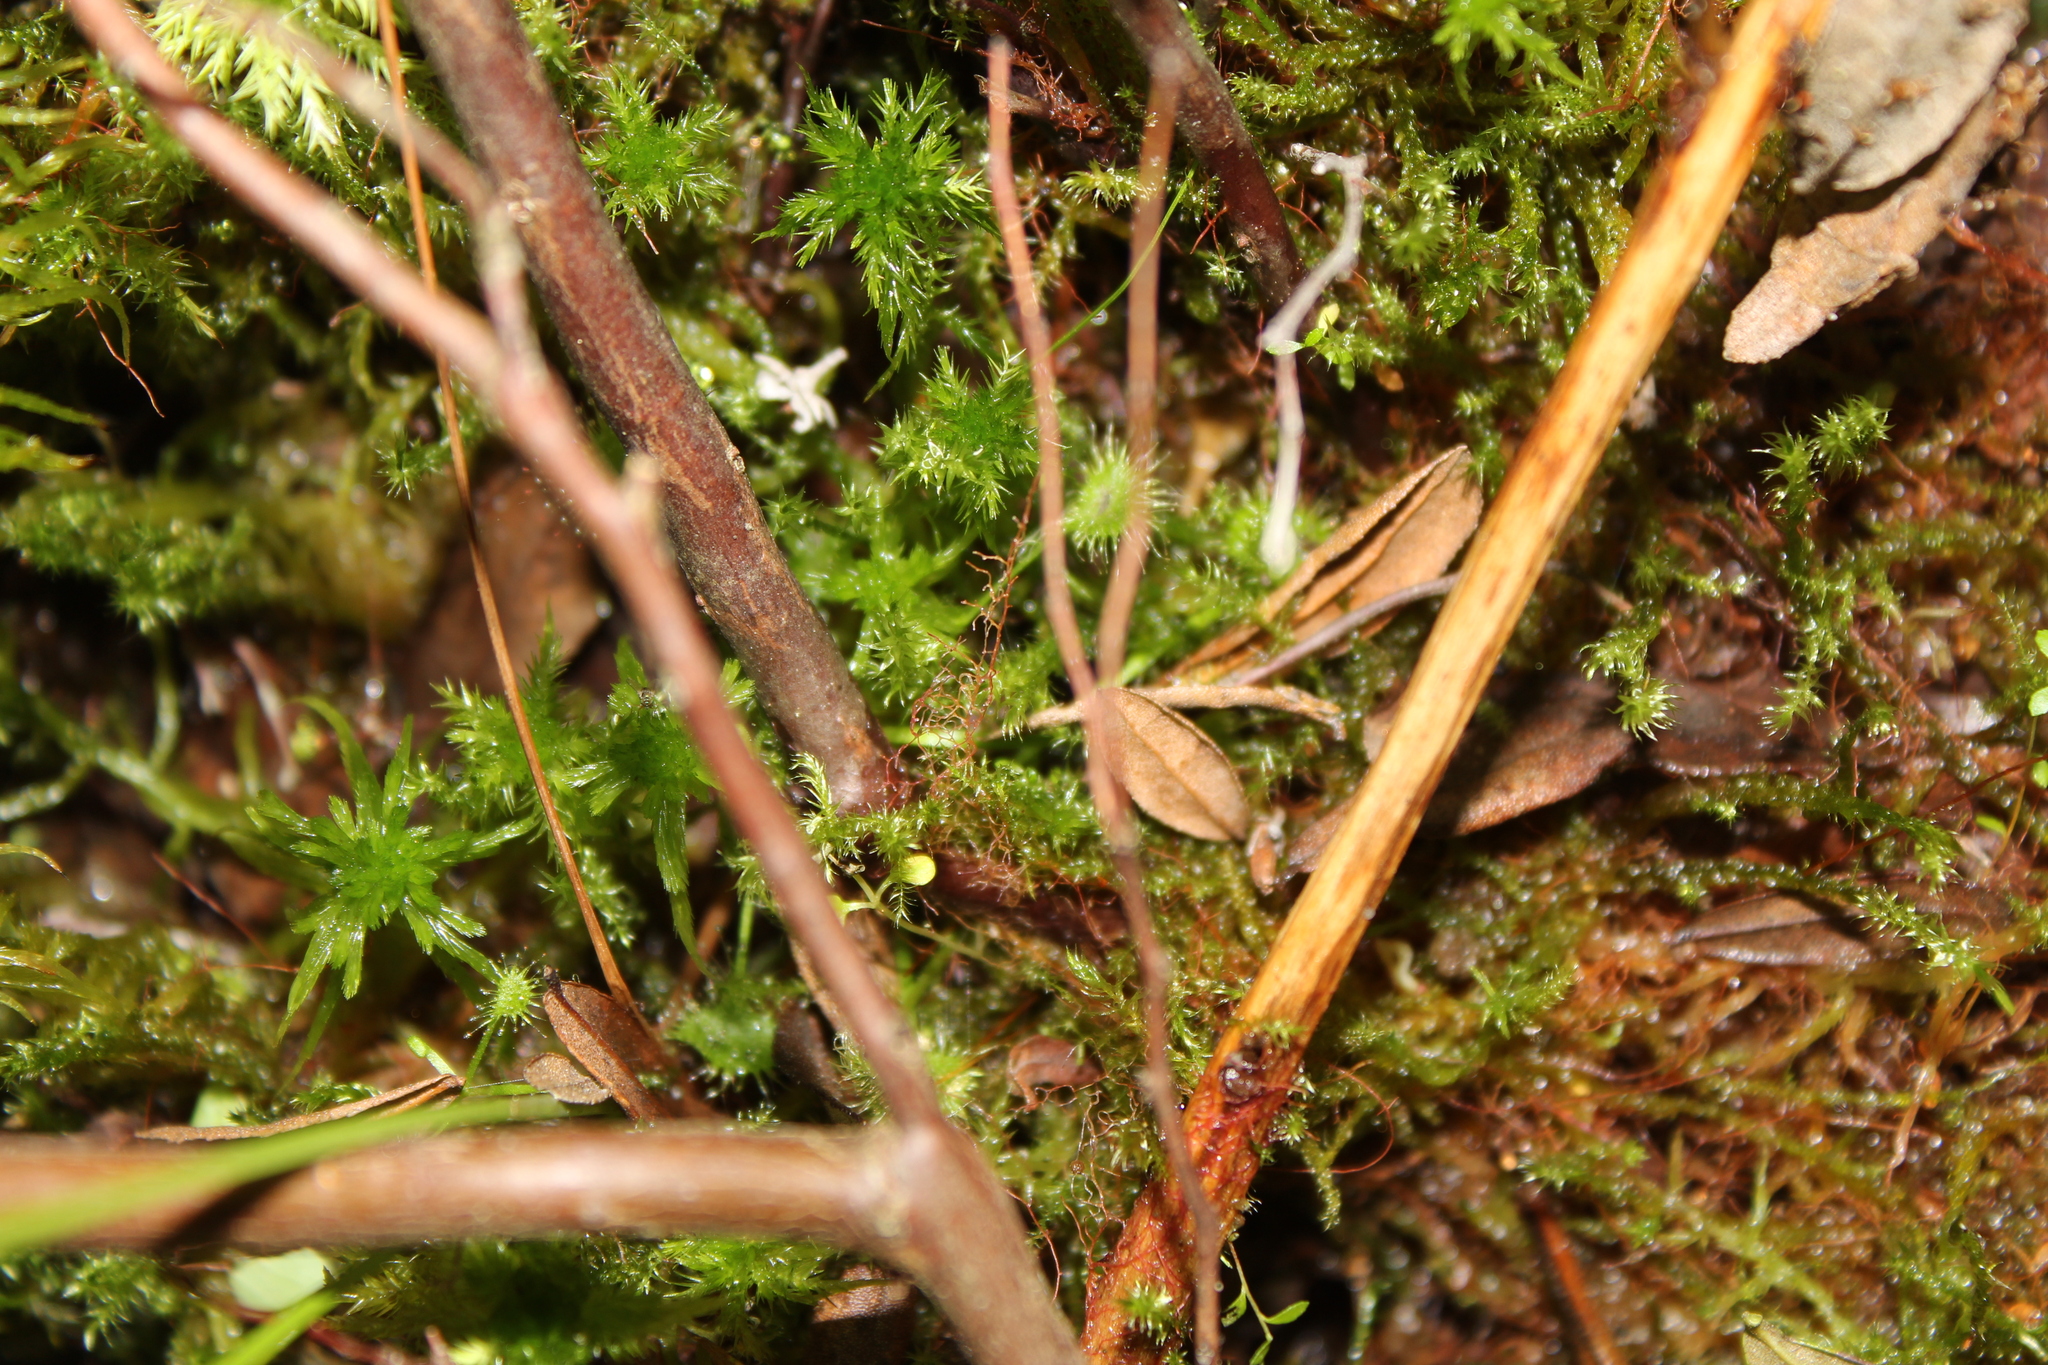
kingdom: Plantae
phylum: Tracheophyta
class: Magnoliopsida
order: Caryophyllales
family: Droseraceae
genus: Drosera
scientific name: Drosera rotundifolia
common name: Round-leaved sundew
